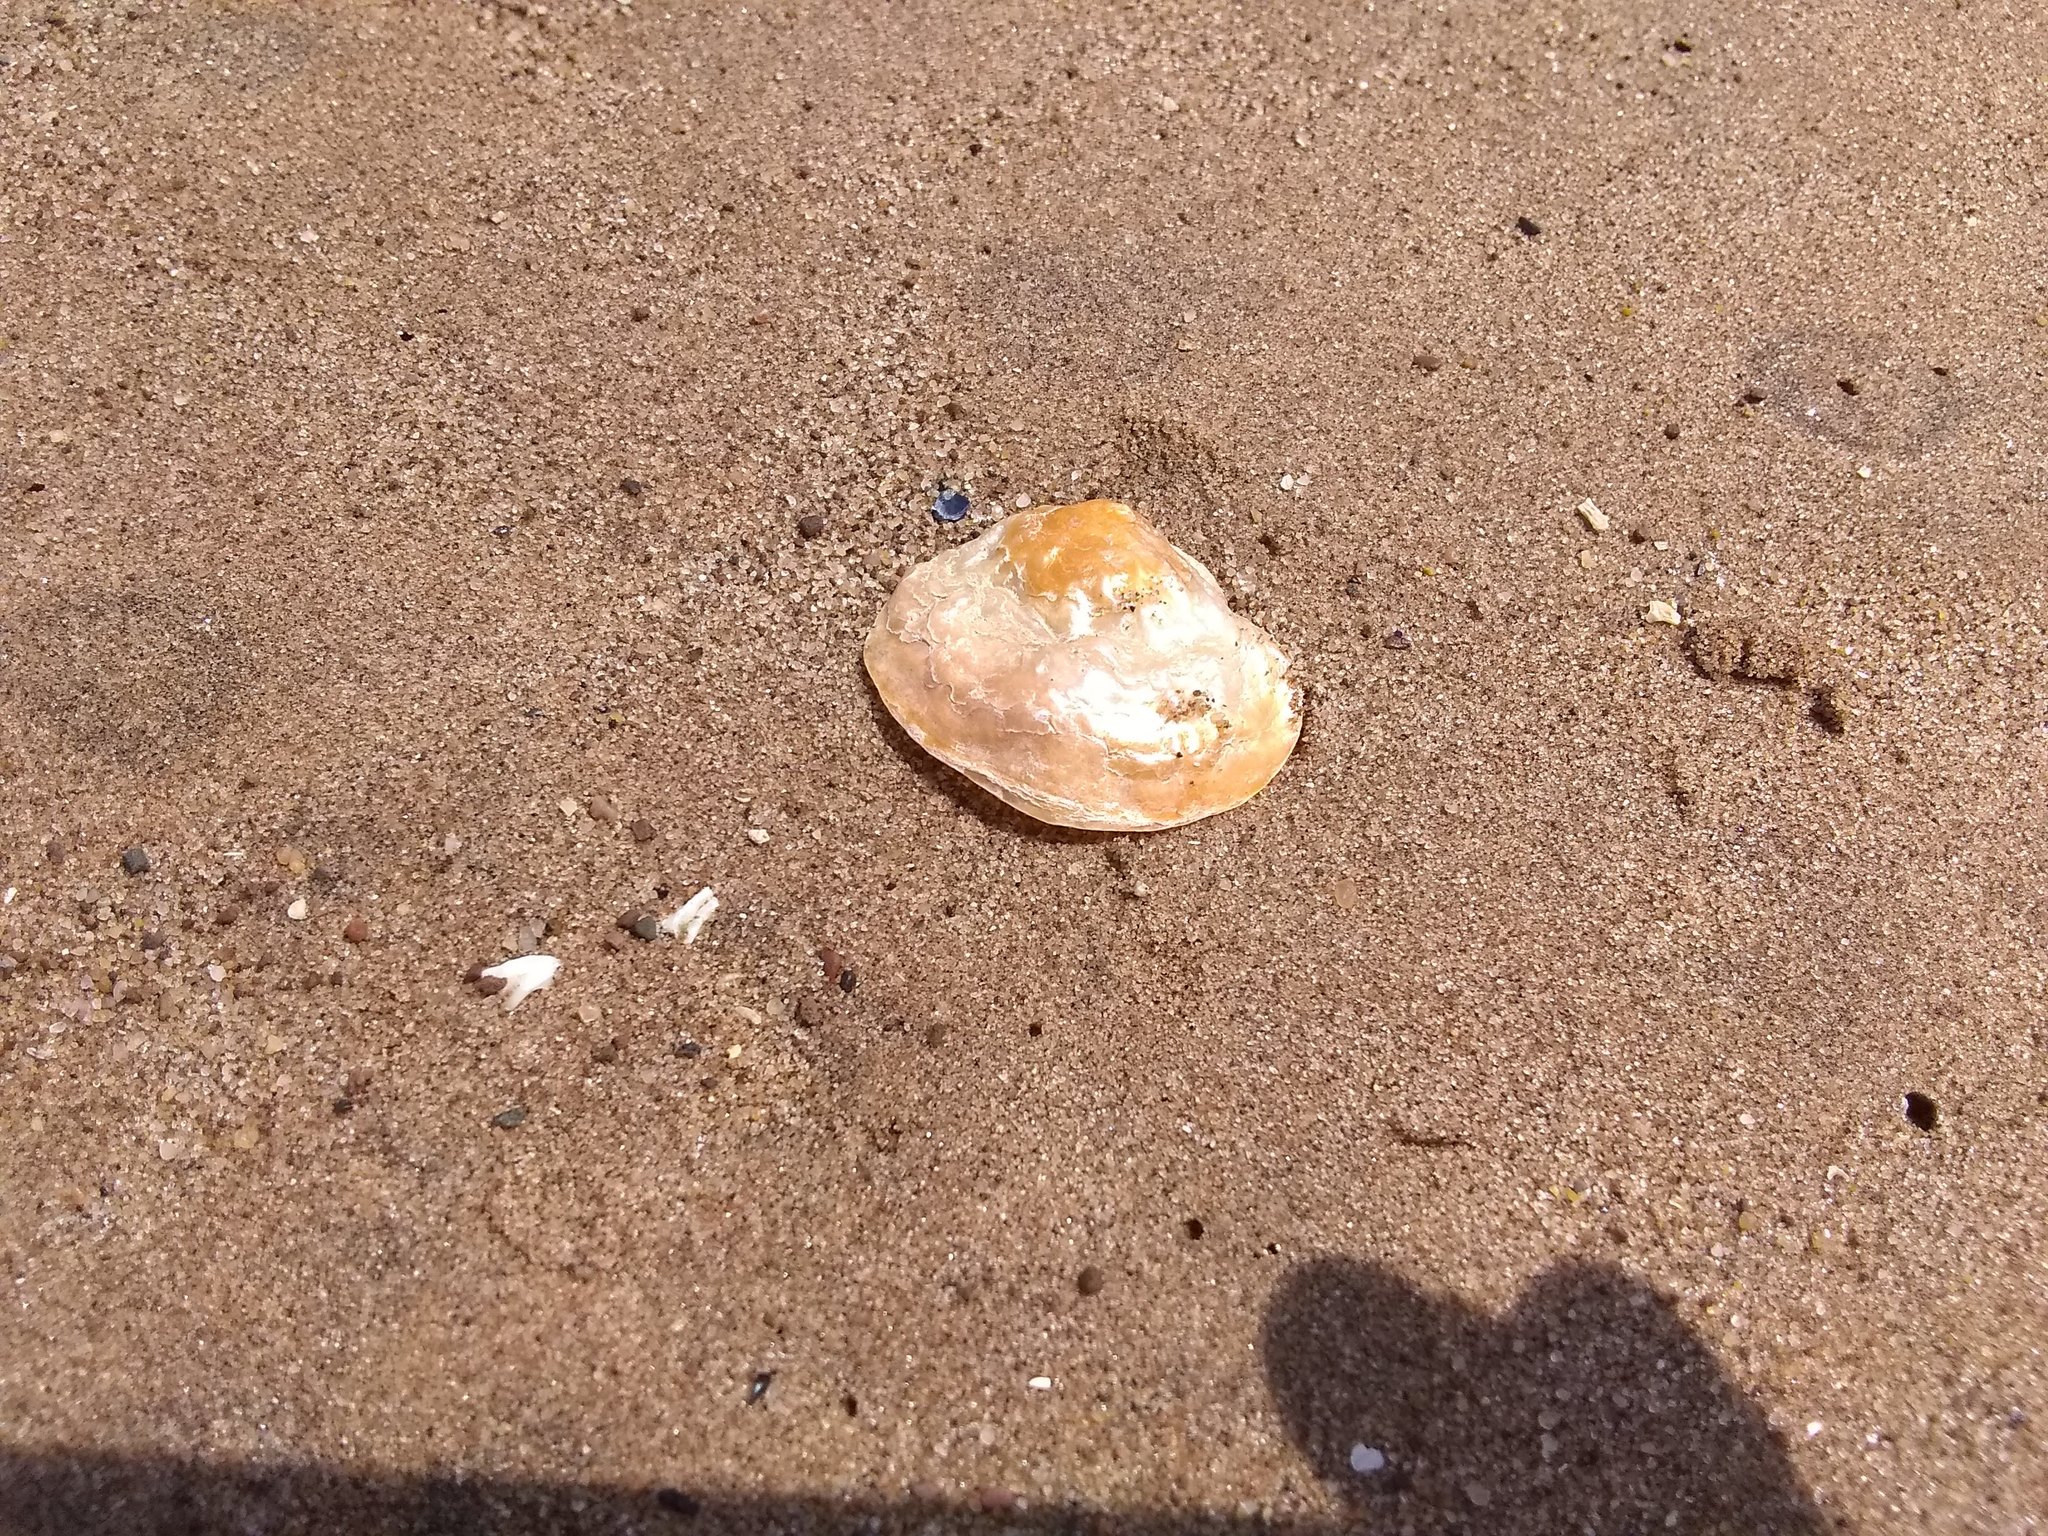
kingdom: Animalia
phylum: Mollusca
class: Bivalvia
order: Pectinida
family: Anomiidae
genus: Anomia
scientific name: Anomia simplex
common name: Common jingle shell
